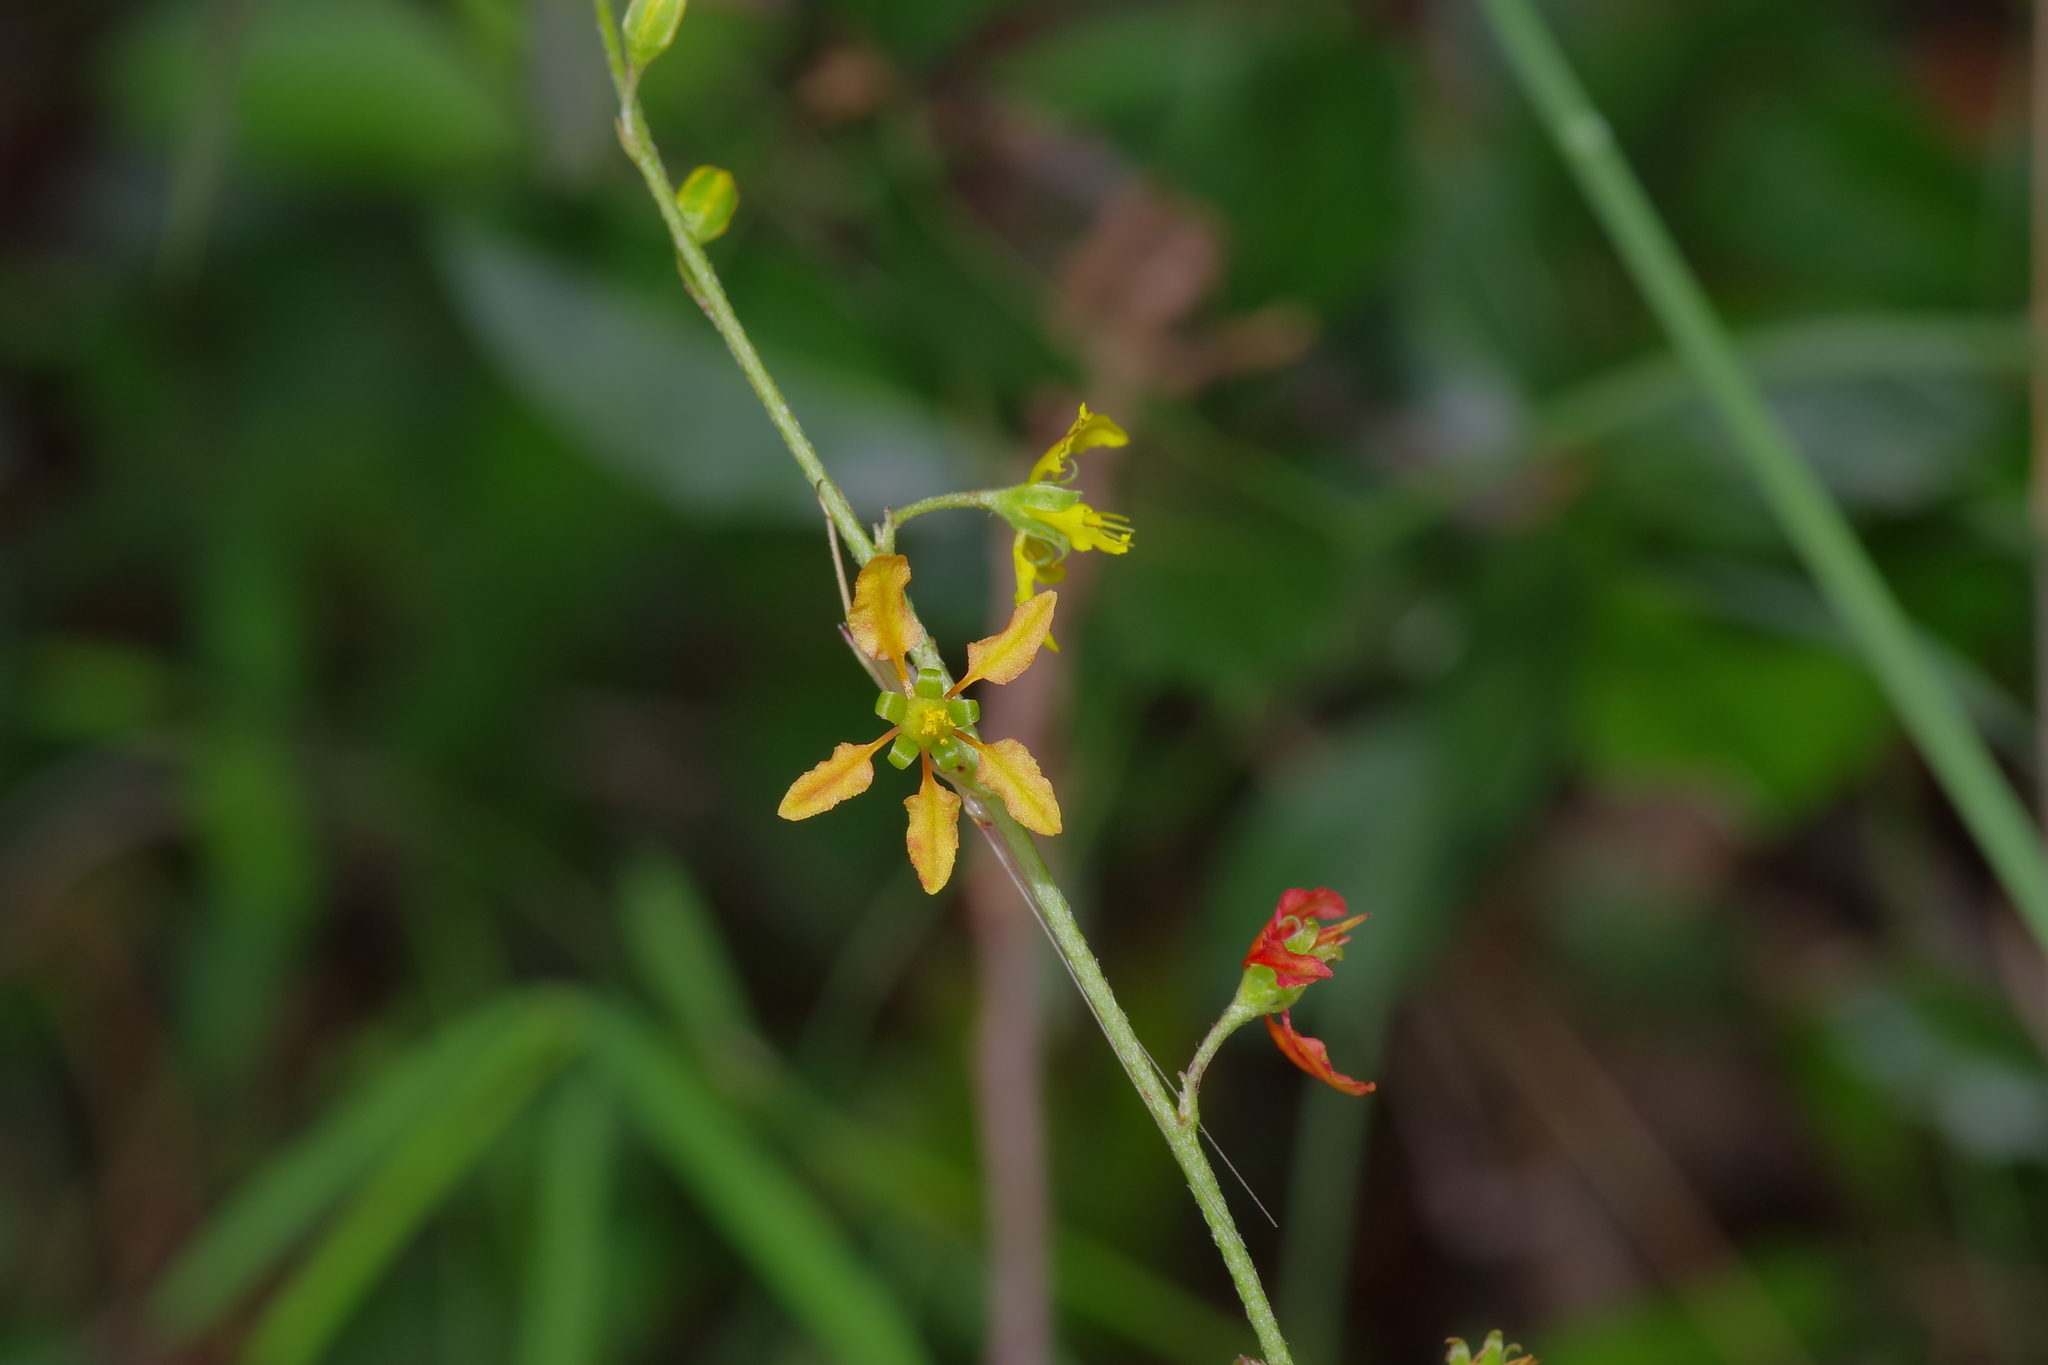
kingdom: Plantae
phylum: Tracheophyta
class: Magnoliopsida
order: Malpighiales
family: Malpighiaceae
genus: Galphimia
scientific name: Galphimia angustifolia
